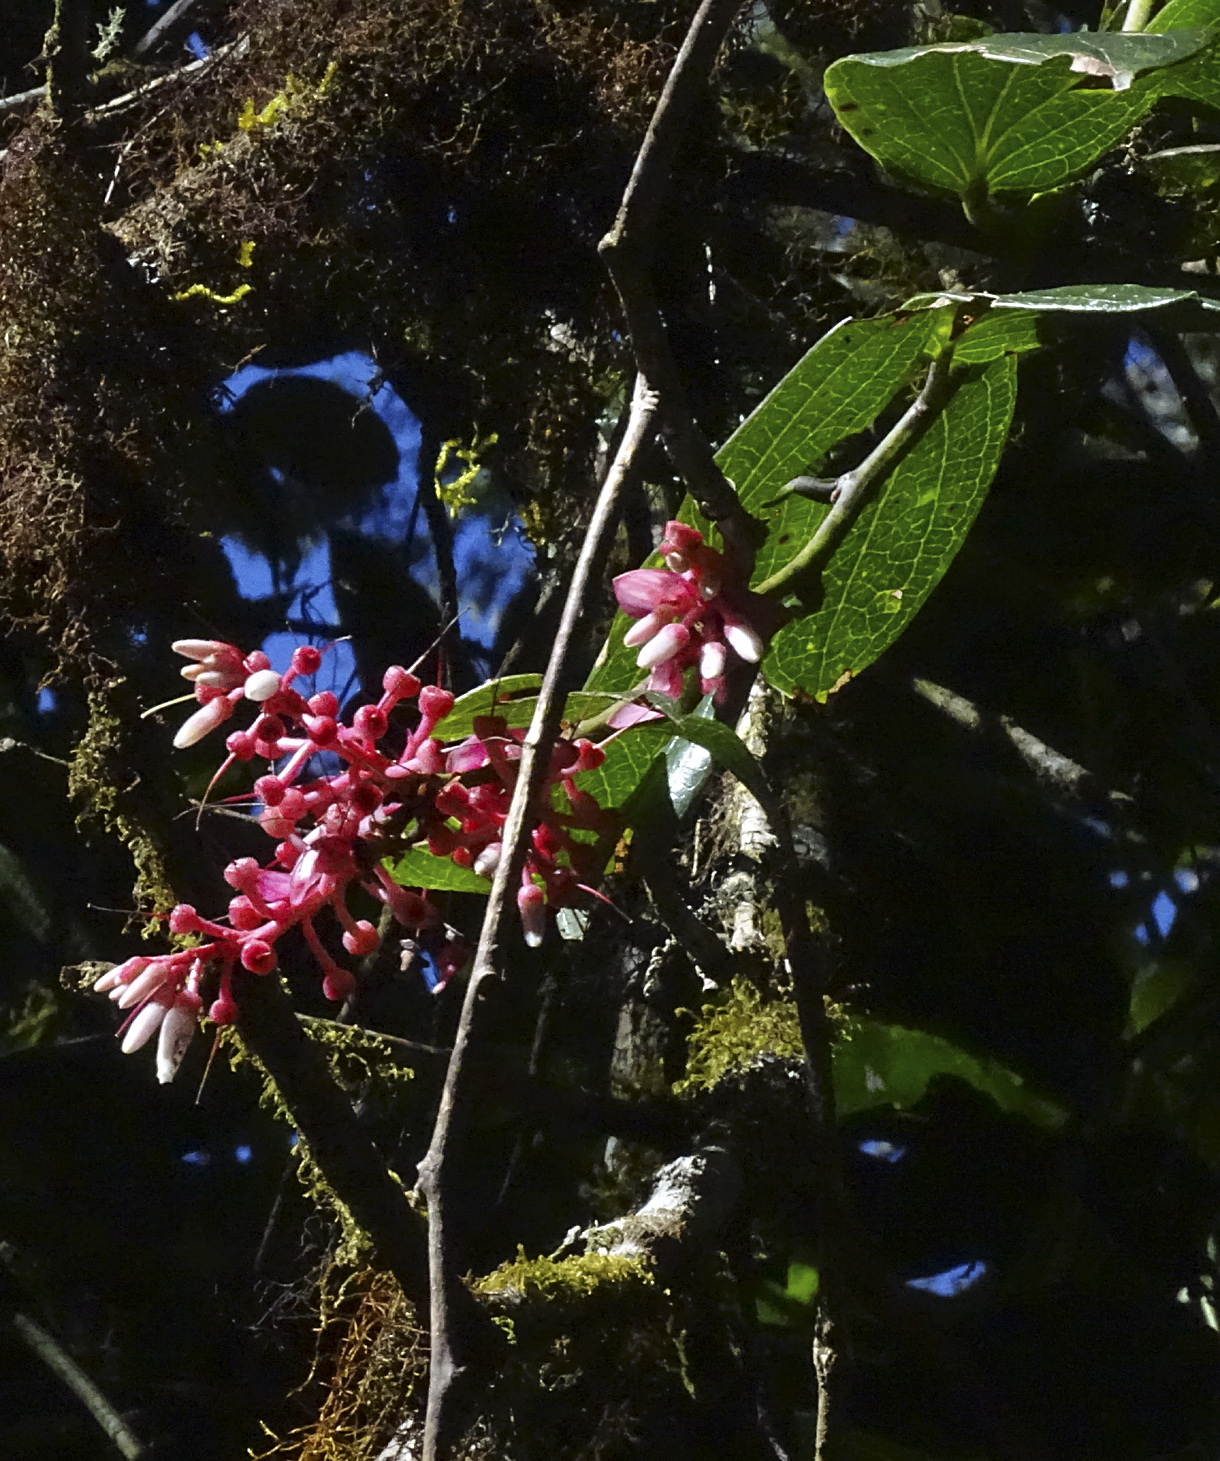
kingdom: Plantae
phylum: Tracheophyta
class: Magnoliopsida
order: Ericales
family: Ericaceae
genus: Cavendishia
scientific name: Cavendishia bracteata
